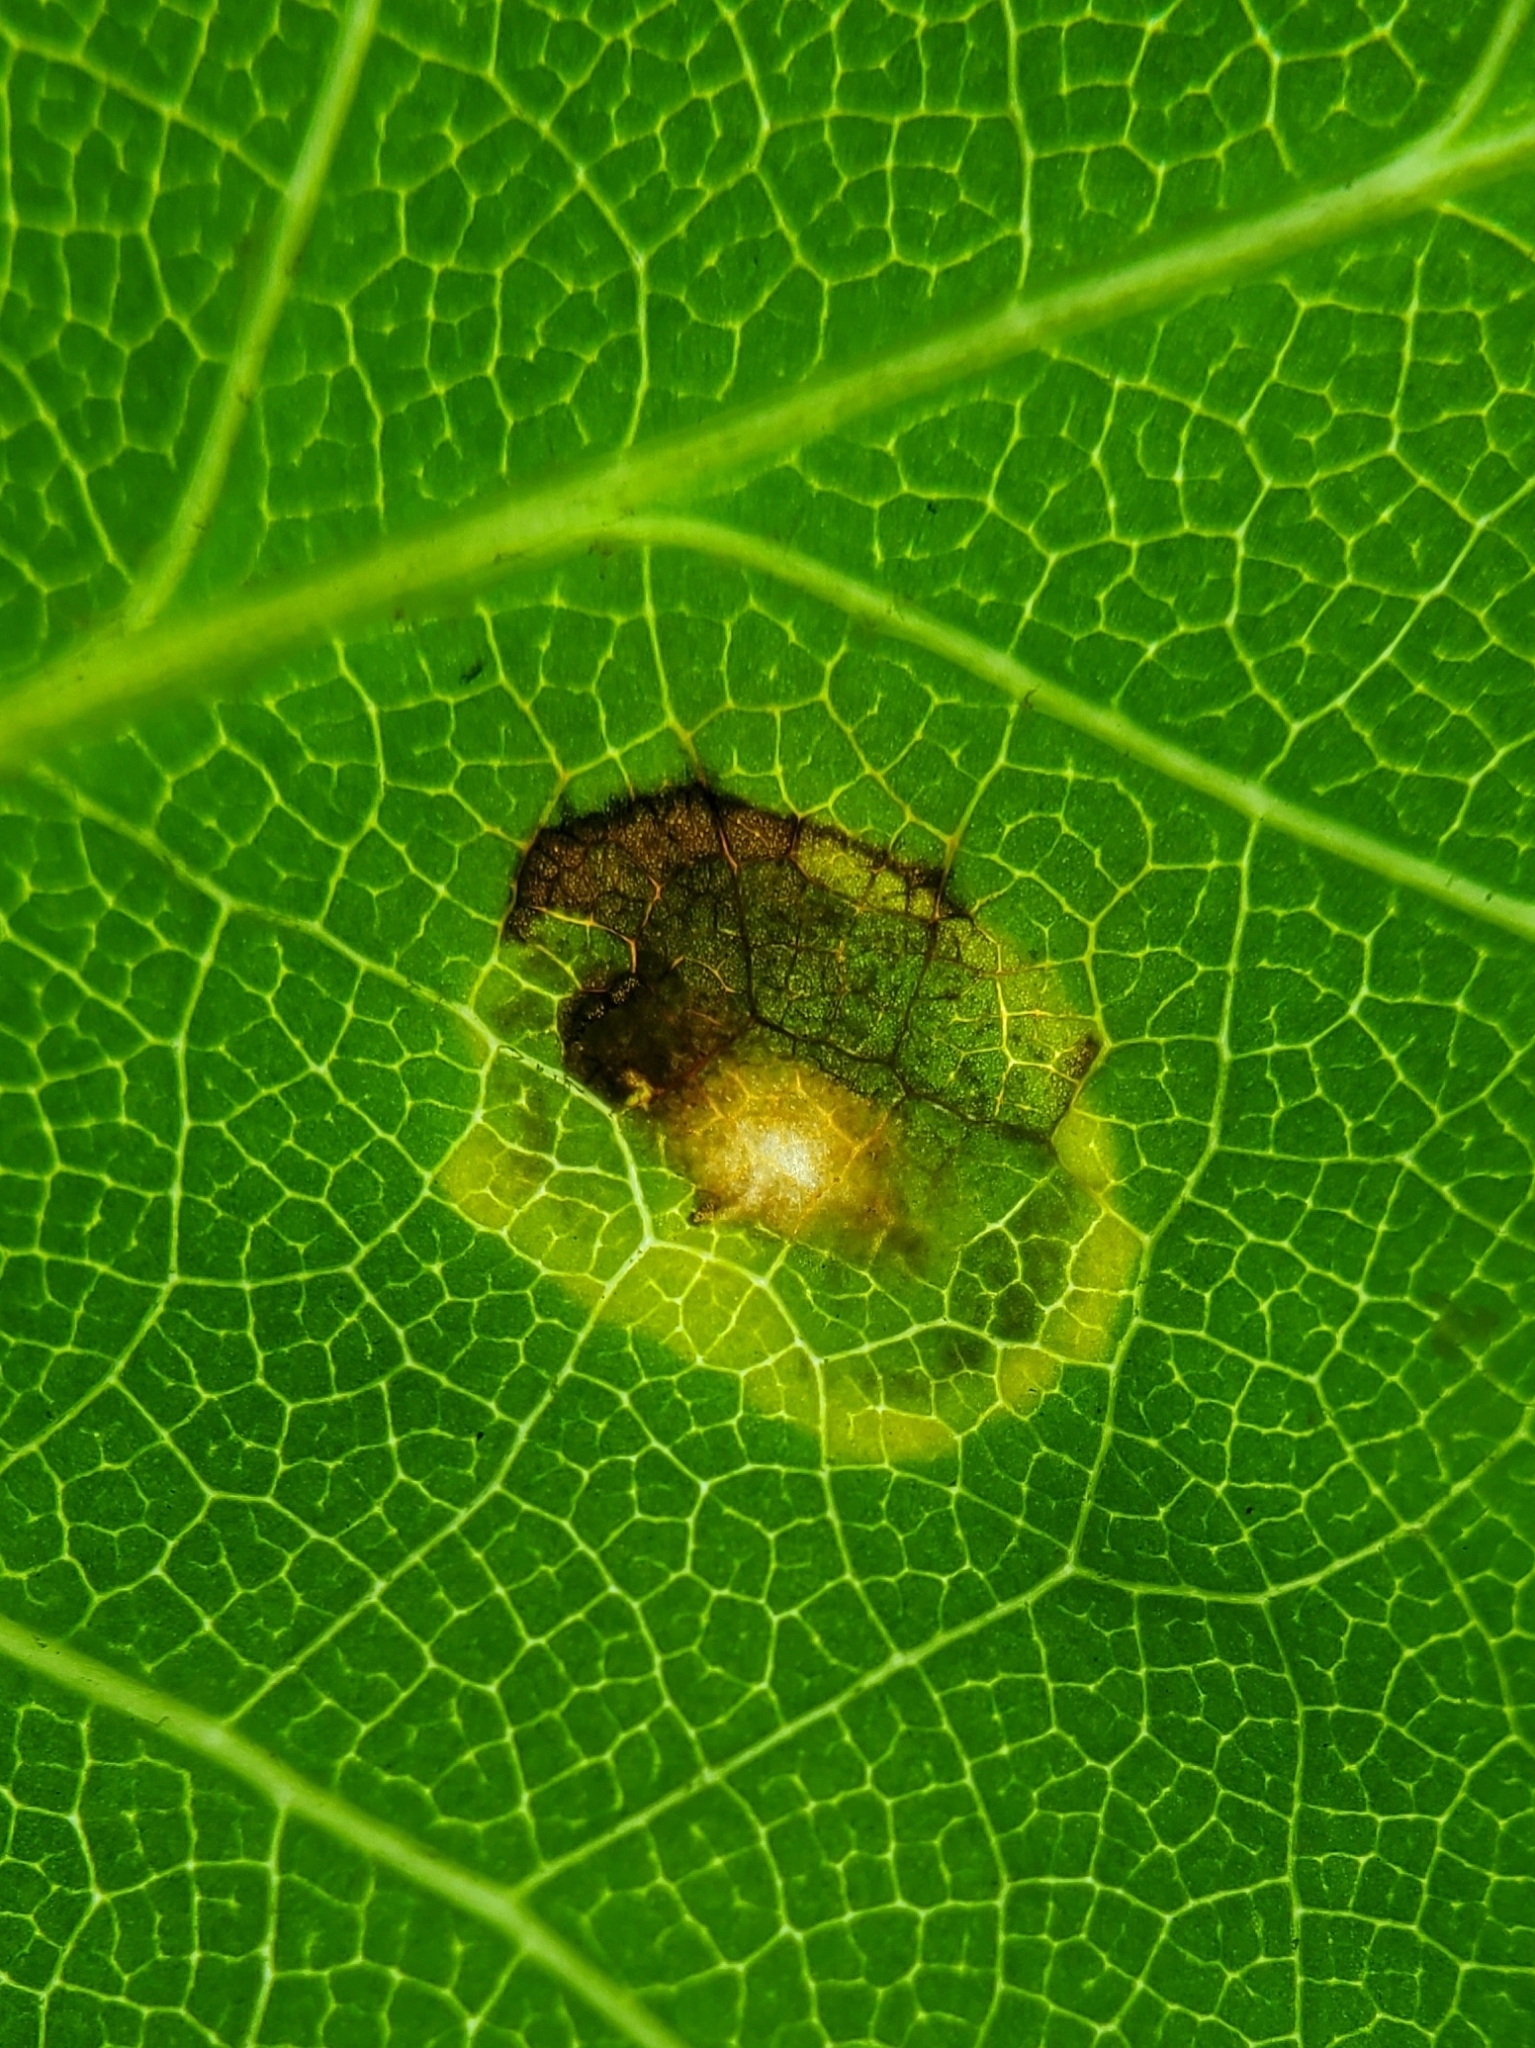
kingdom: Animalia
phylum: Arthropoda
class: Insecta
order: Diptera
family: Cecidomyiidae
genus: Resseliella
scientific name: Resseliella liriodendri
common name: Tulip tree leaf spot gall midge
